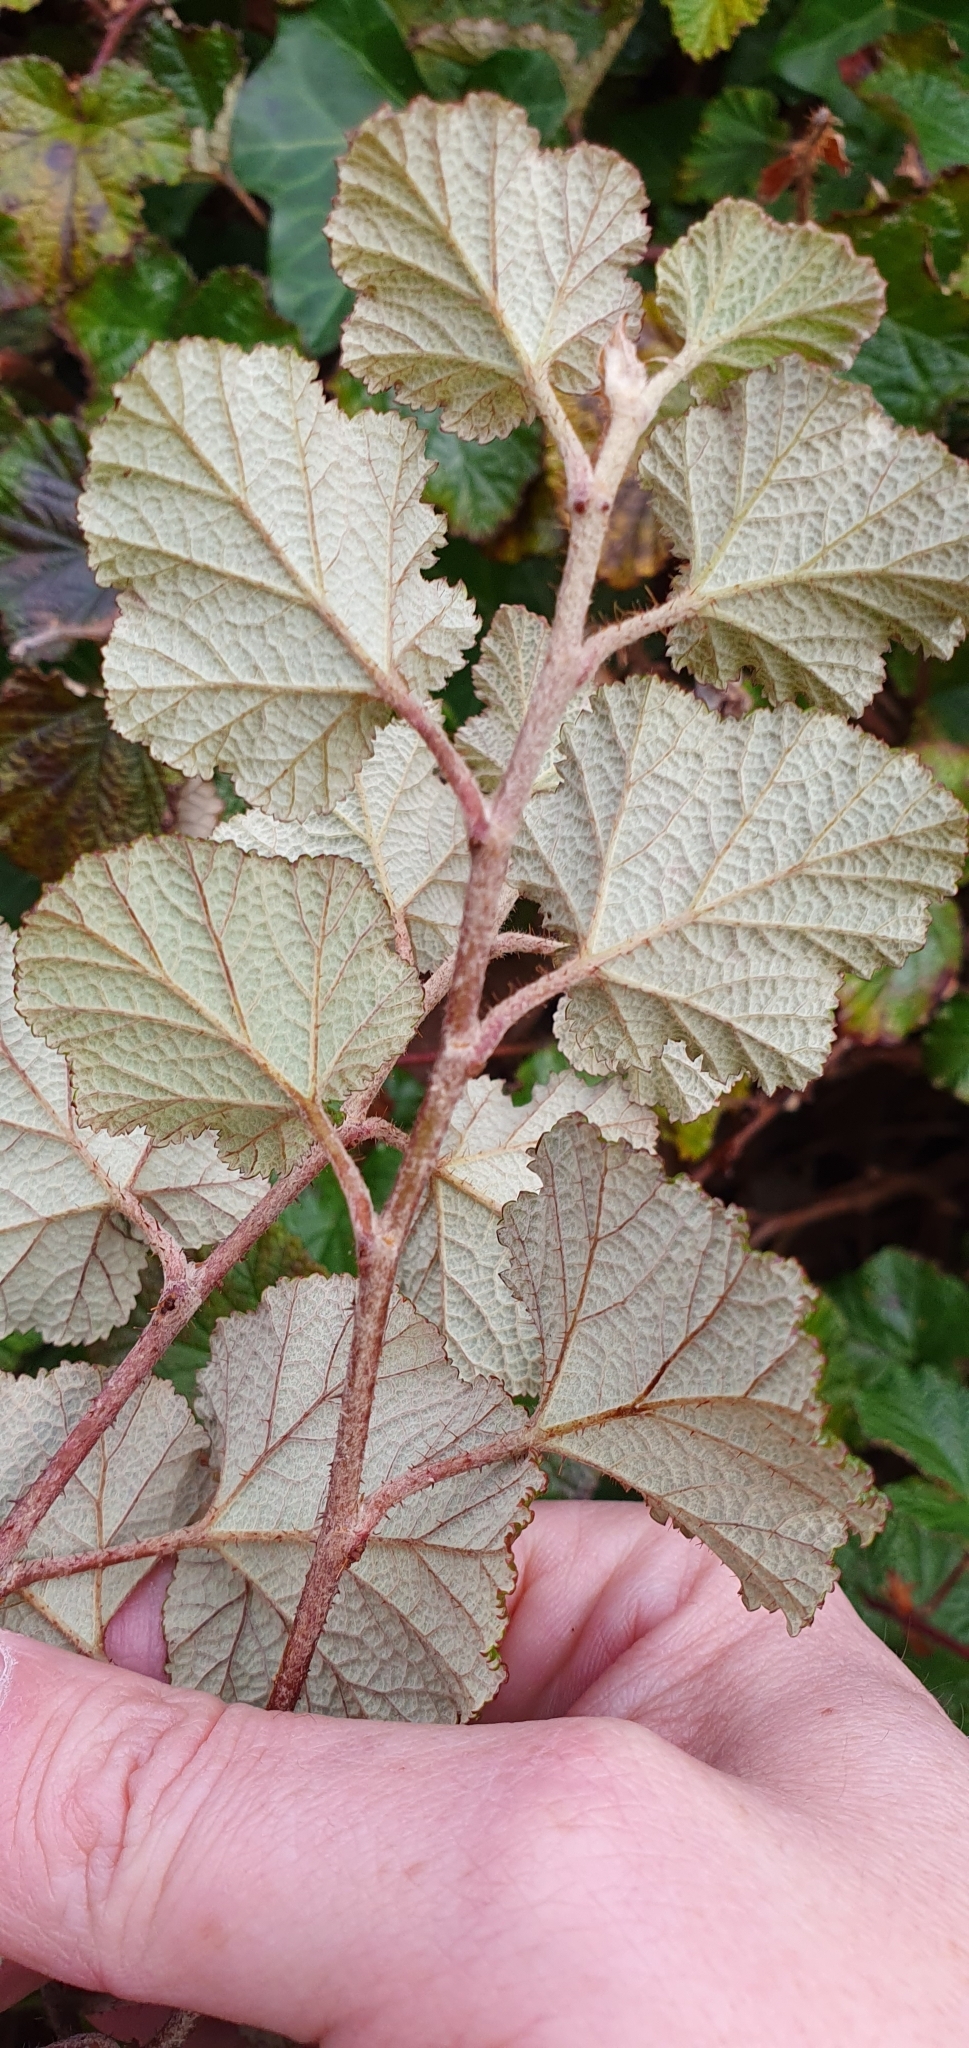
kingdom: Plantae
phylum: Tracheophyta
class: Magnoliopsida
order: Rosales
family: Rosaceae
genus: Rubus
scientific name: Rubus tricolor
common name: Chinese bramble
